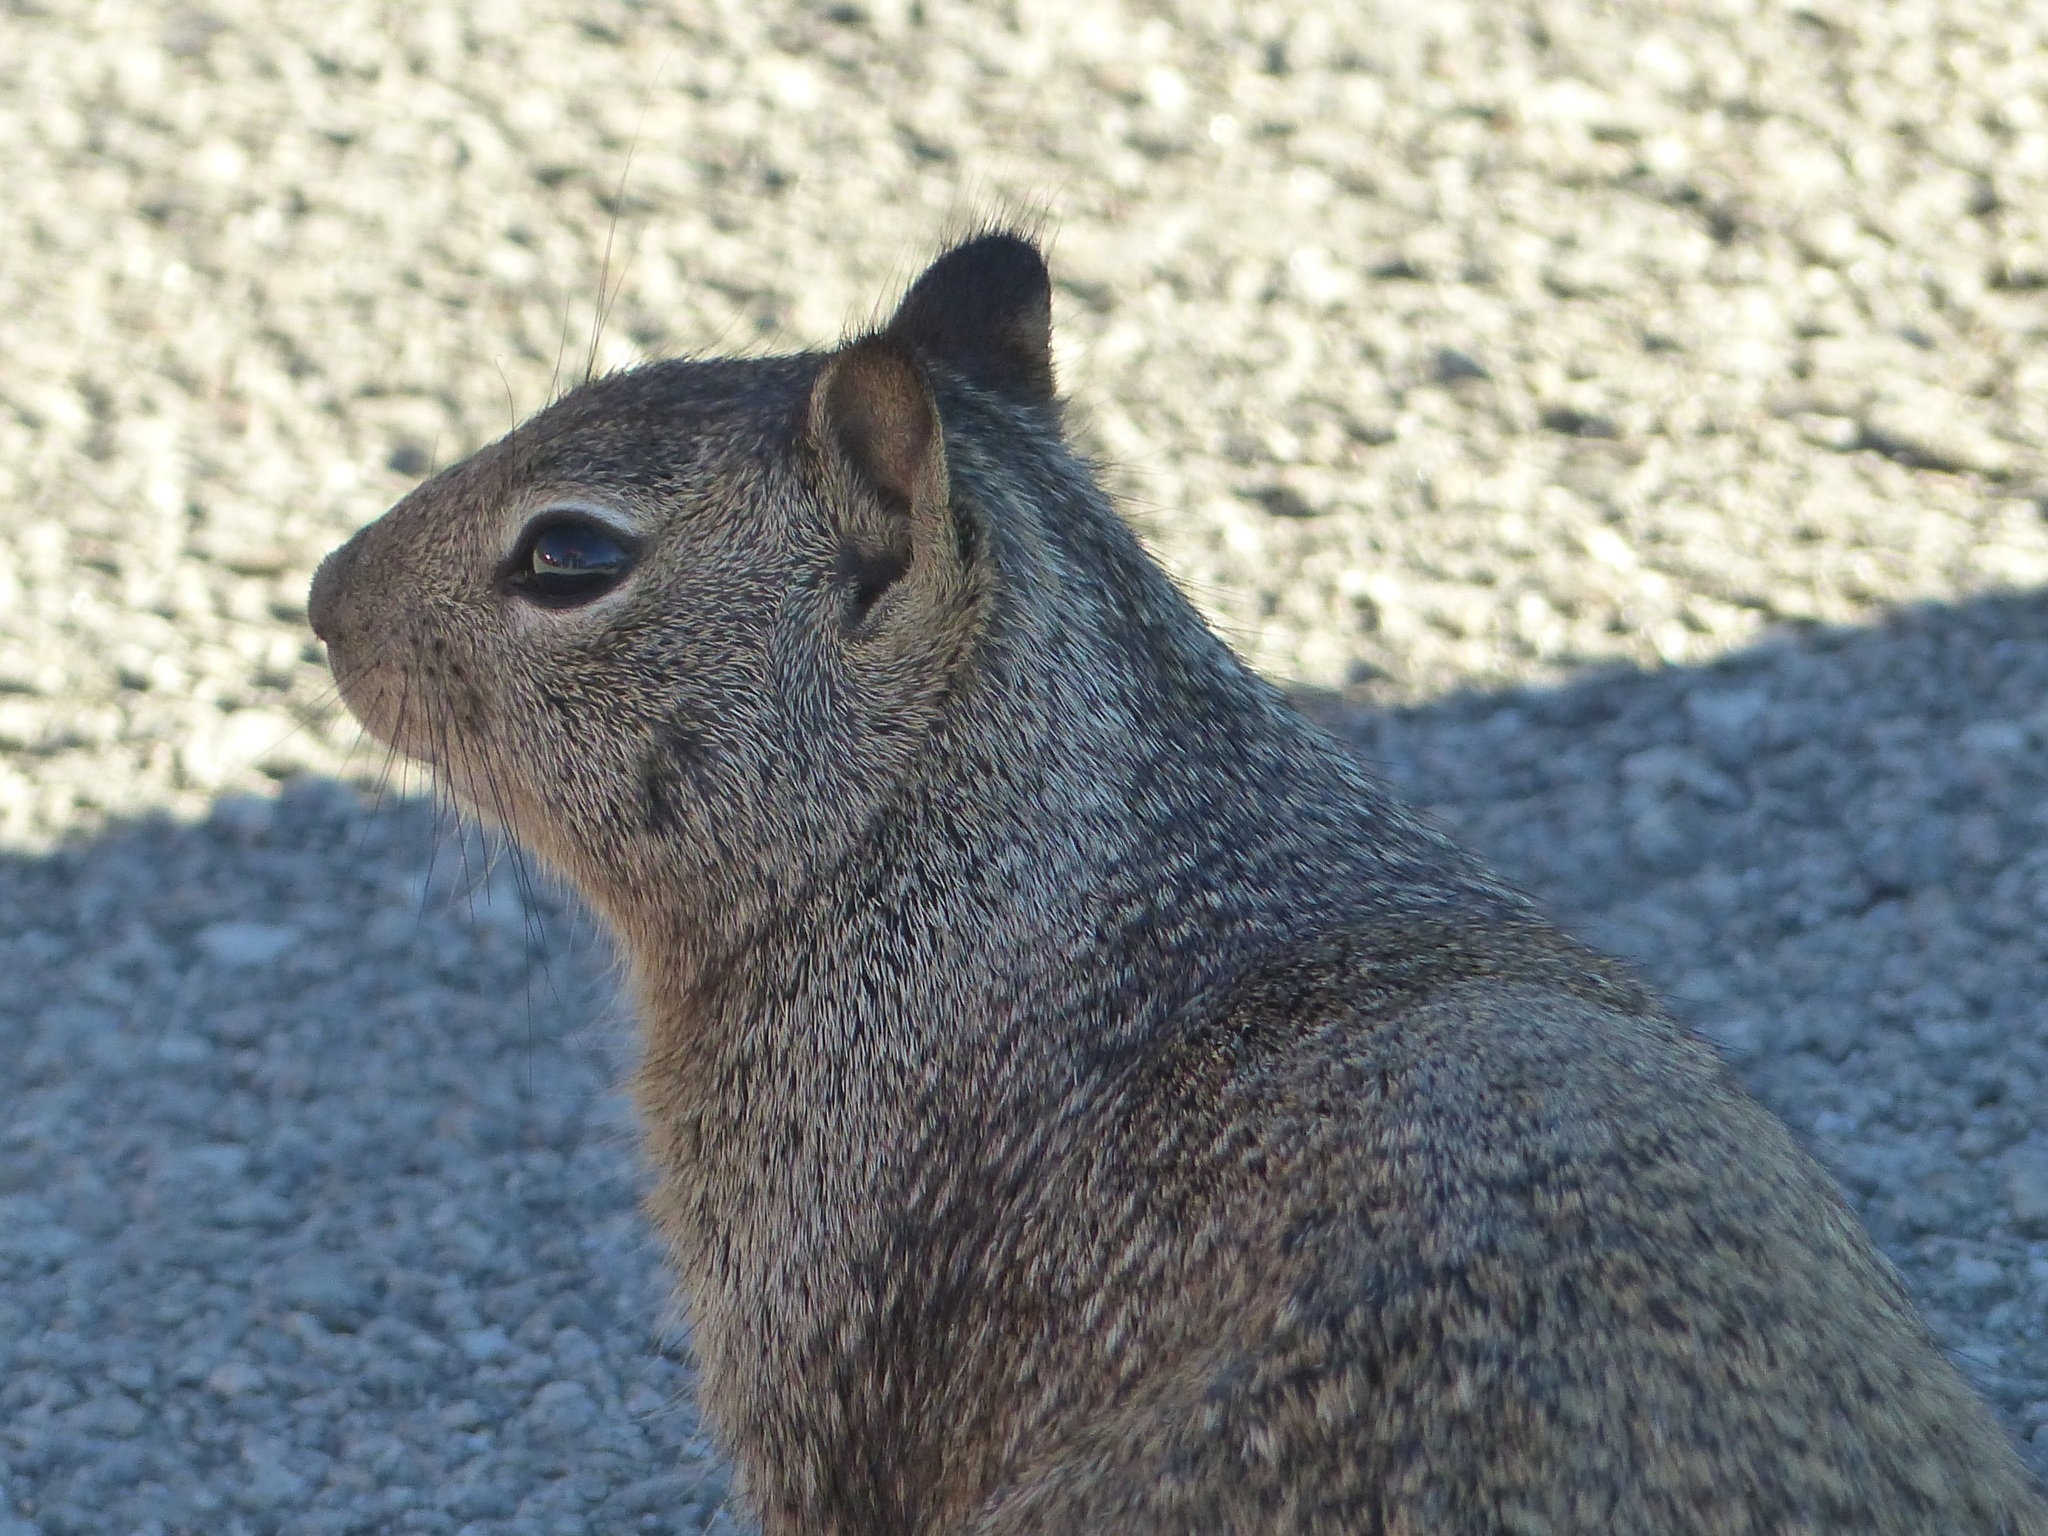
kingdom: Animalia
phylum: Chordata
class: Mammalia
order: Rodentia
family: Sciuridae
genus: Otospermophilus
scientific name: Otospermophilus beecheyi
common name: California ground squirrel
